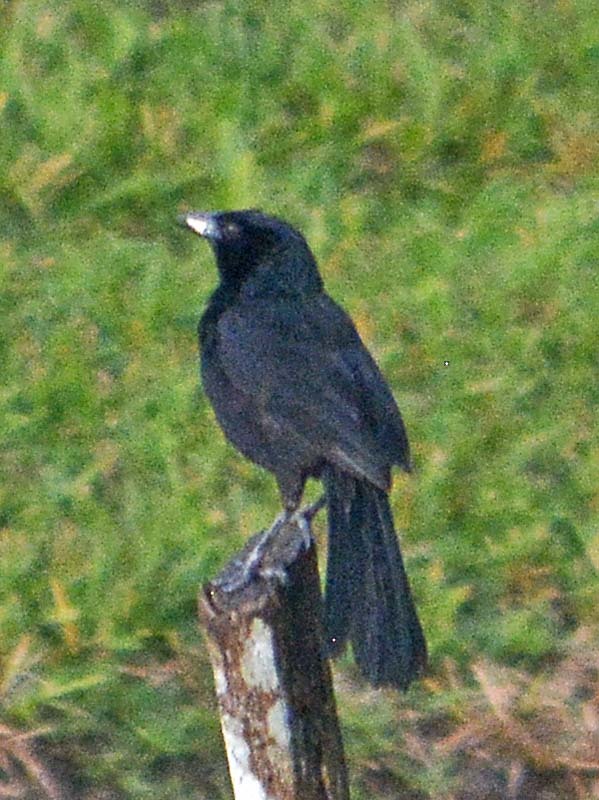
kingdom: Animalia
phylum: Chordata
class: Aves
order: Passeriformes
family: Icteridae
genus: Dives
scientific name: Dives dives
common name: Melodious blackbird
